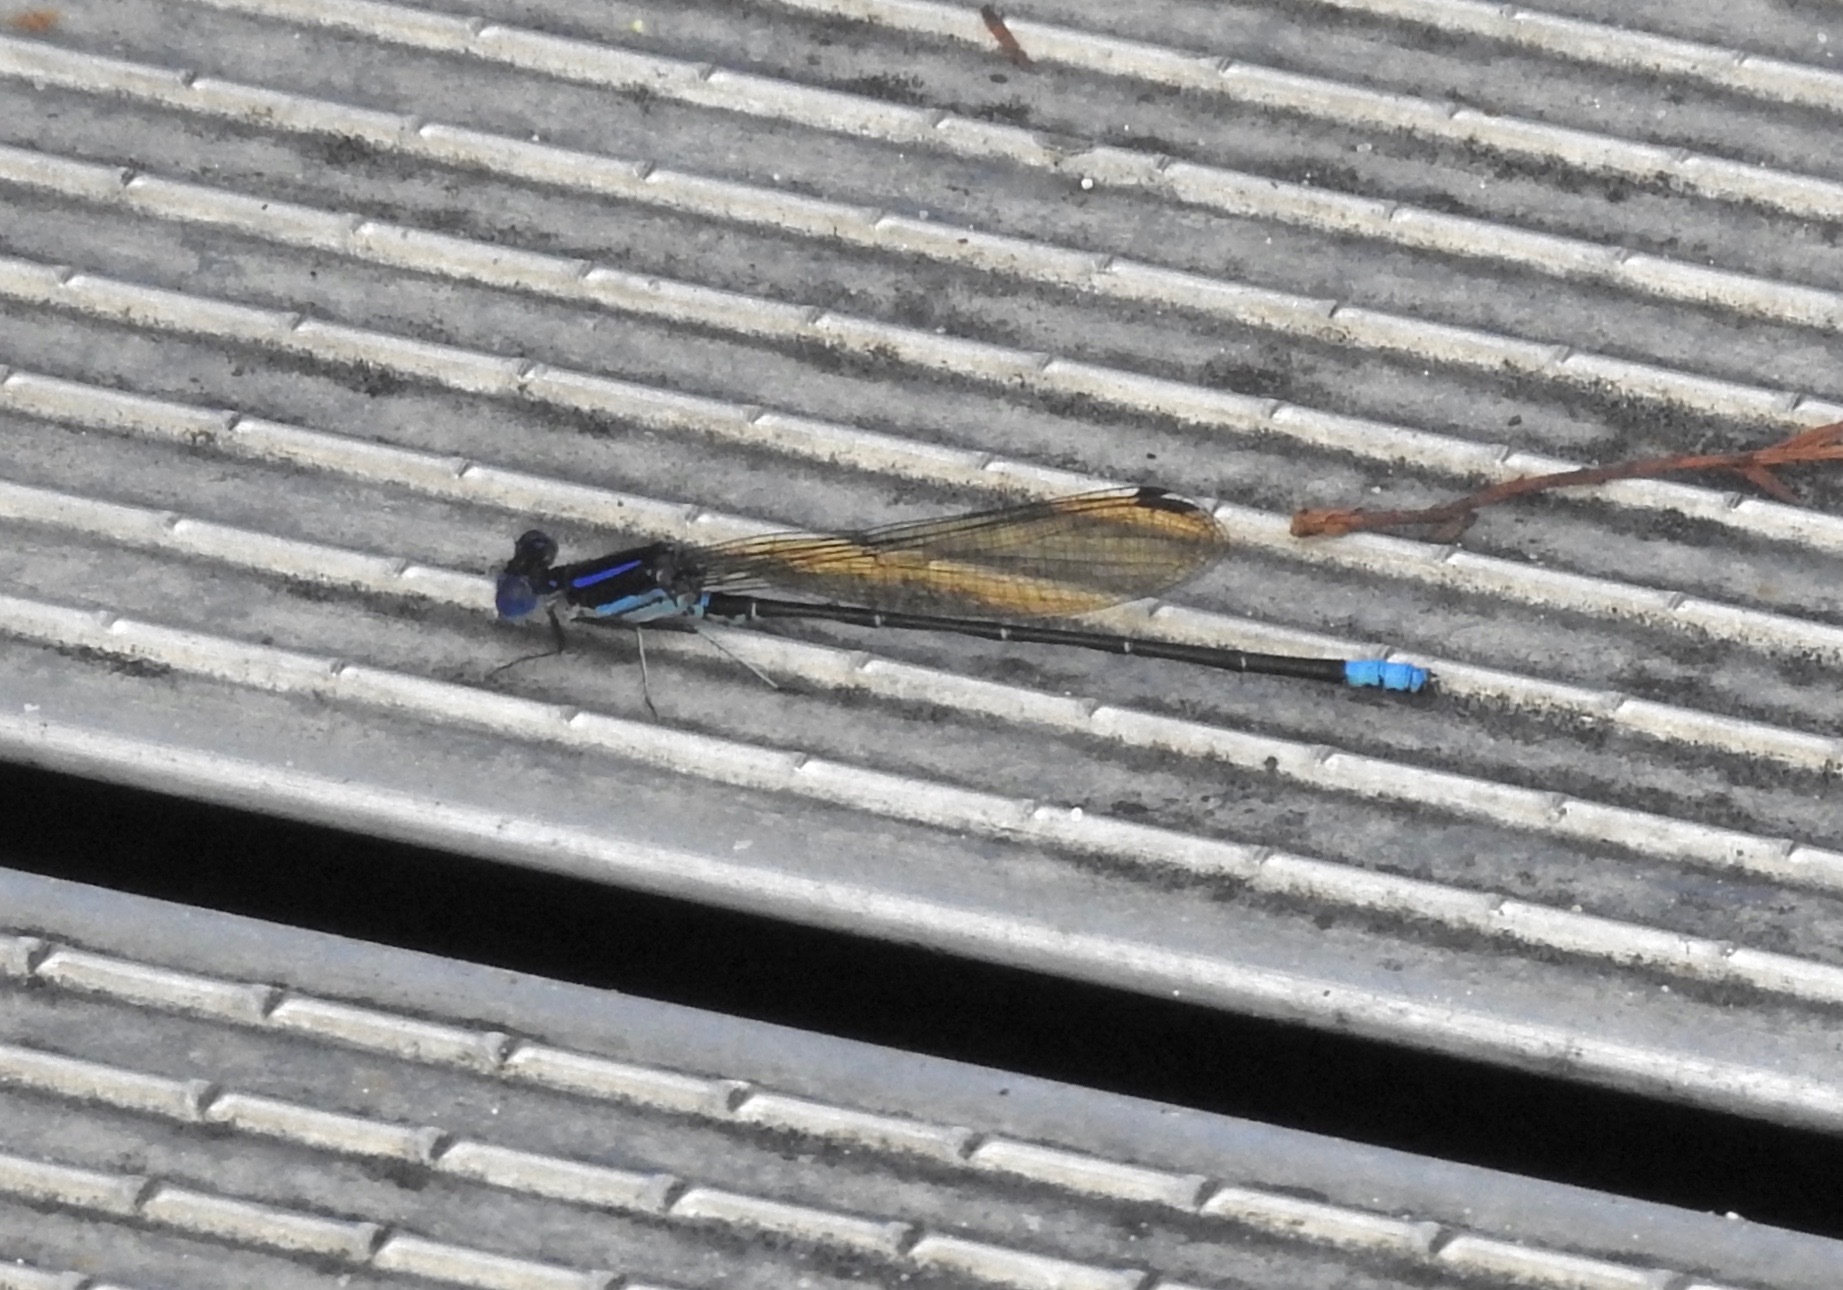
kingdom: Animalia
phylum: Arthropoda
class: Insecta
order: Odonata
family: Coenagrionidae
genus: Argia
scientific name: Argia sedula
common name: Blue-ringed dancer
